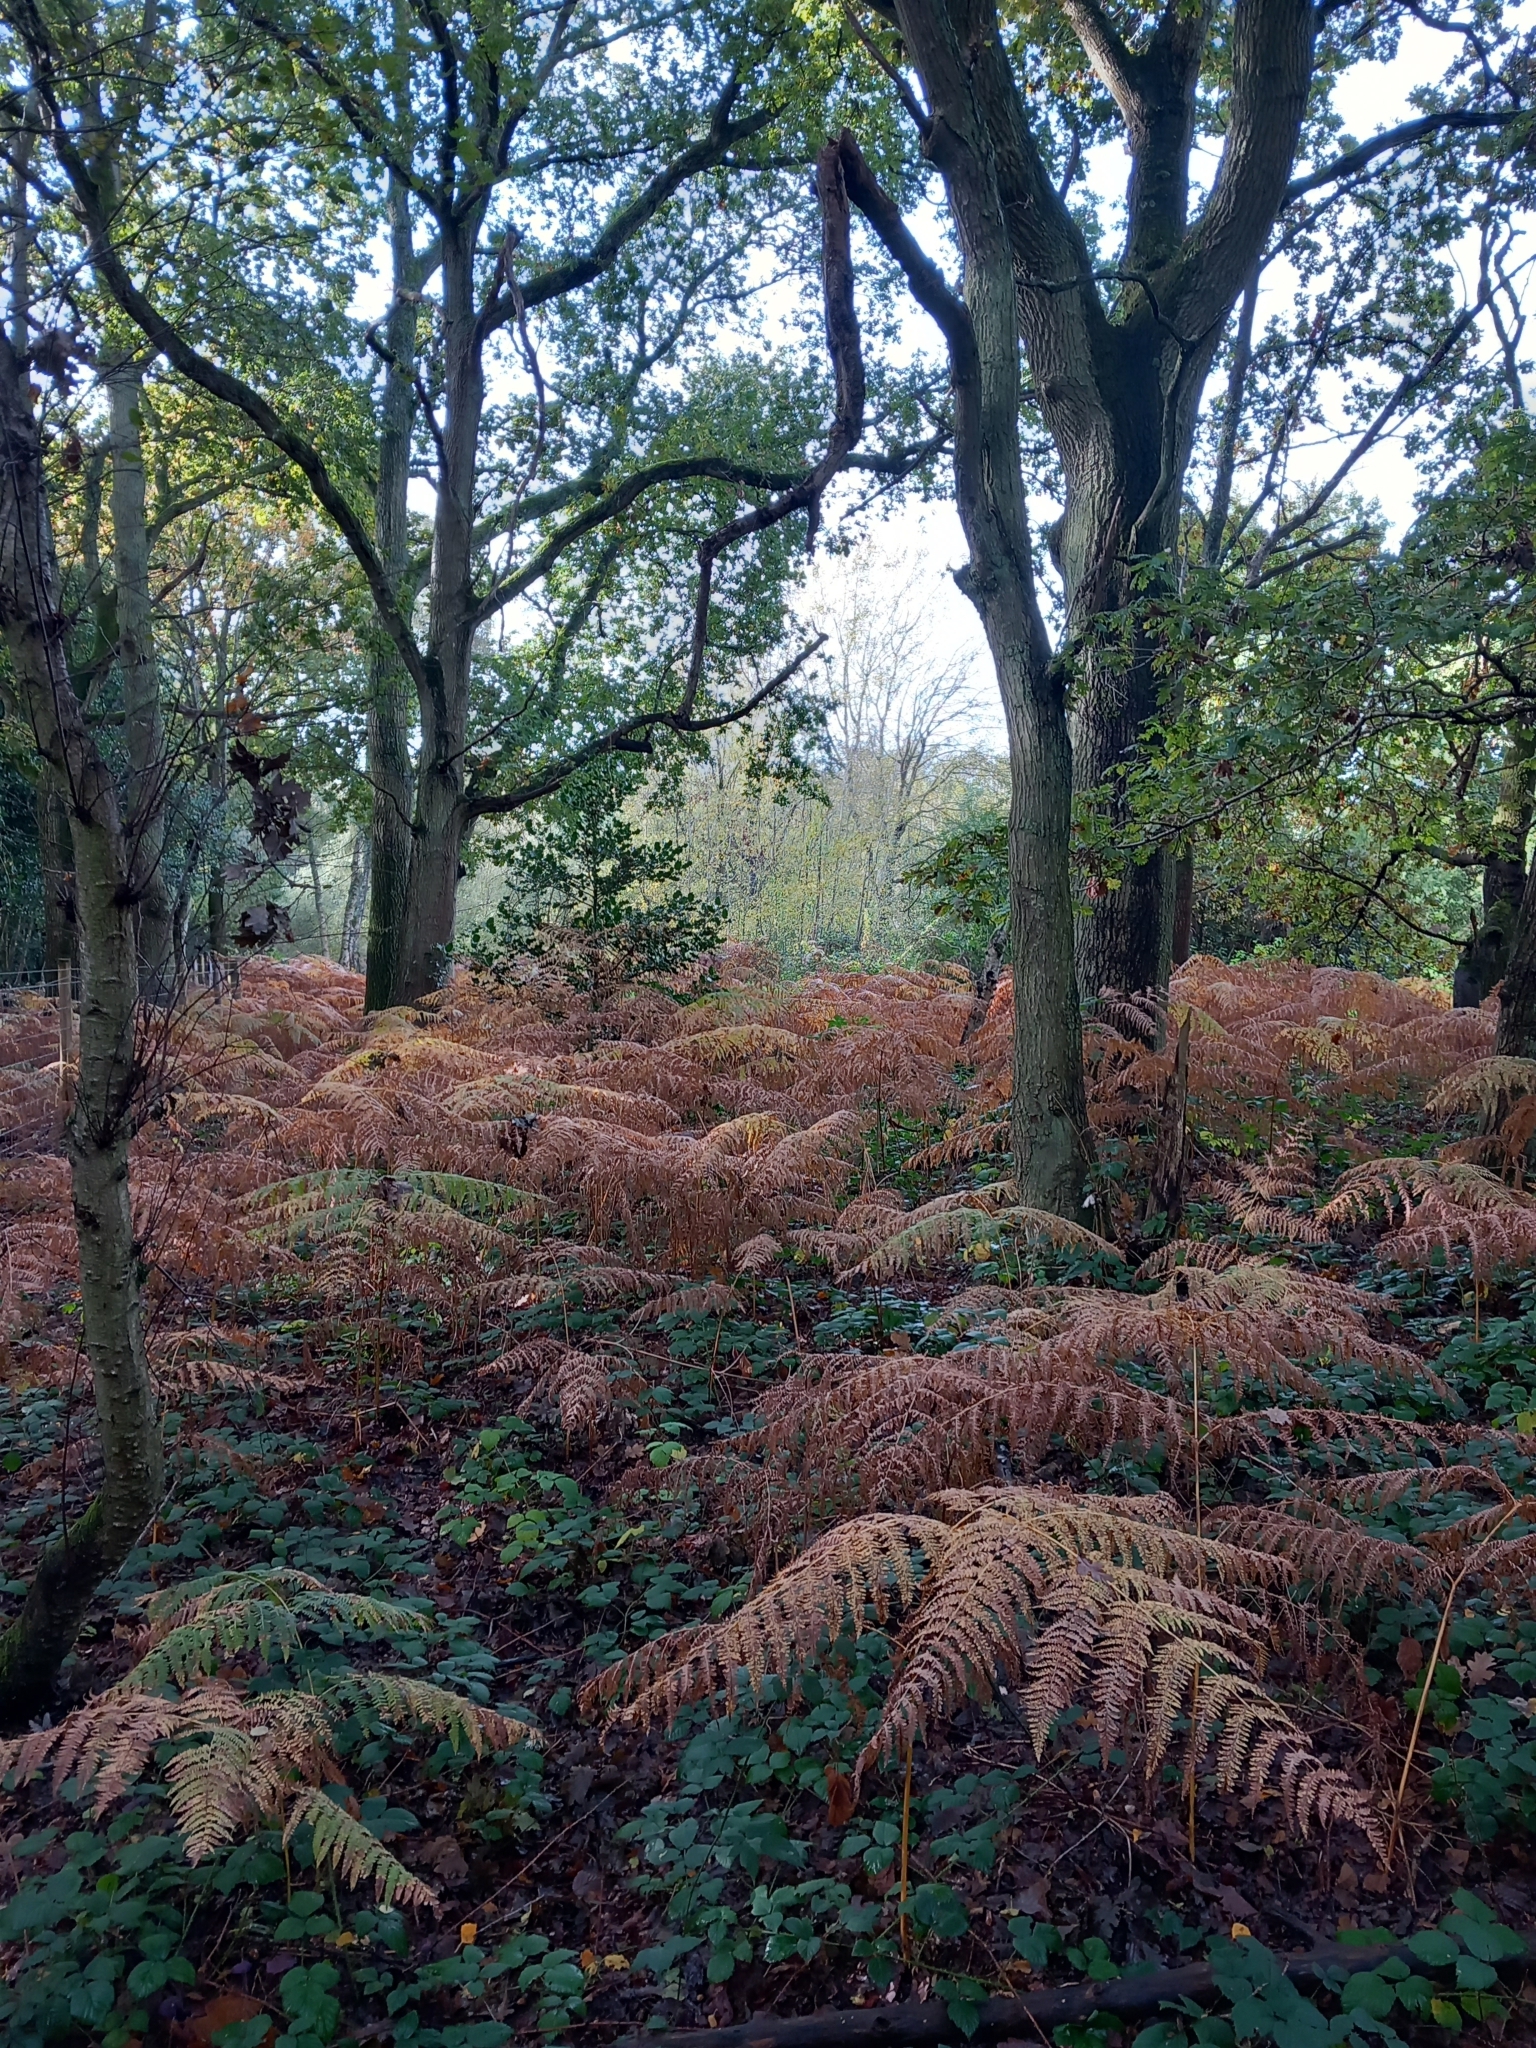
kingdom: Plantae
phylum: Tracheophyta
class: Polypodiopsida
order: Polypodiales
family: Dennstaedtiaceae
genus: Pteridium
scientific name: Pteridium aquilinum
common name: Bracken
